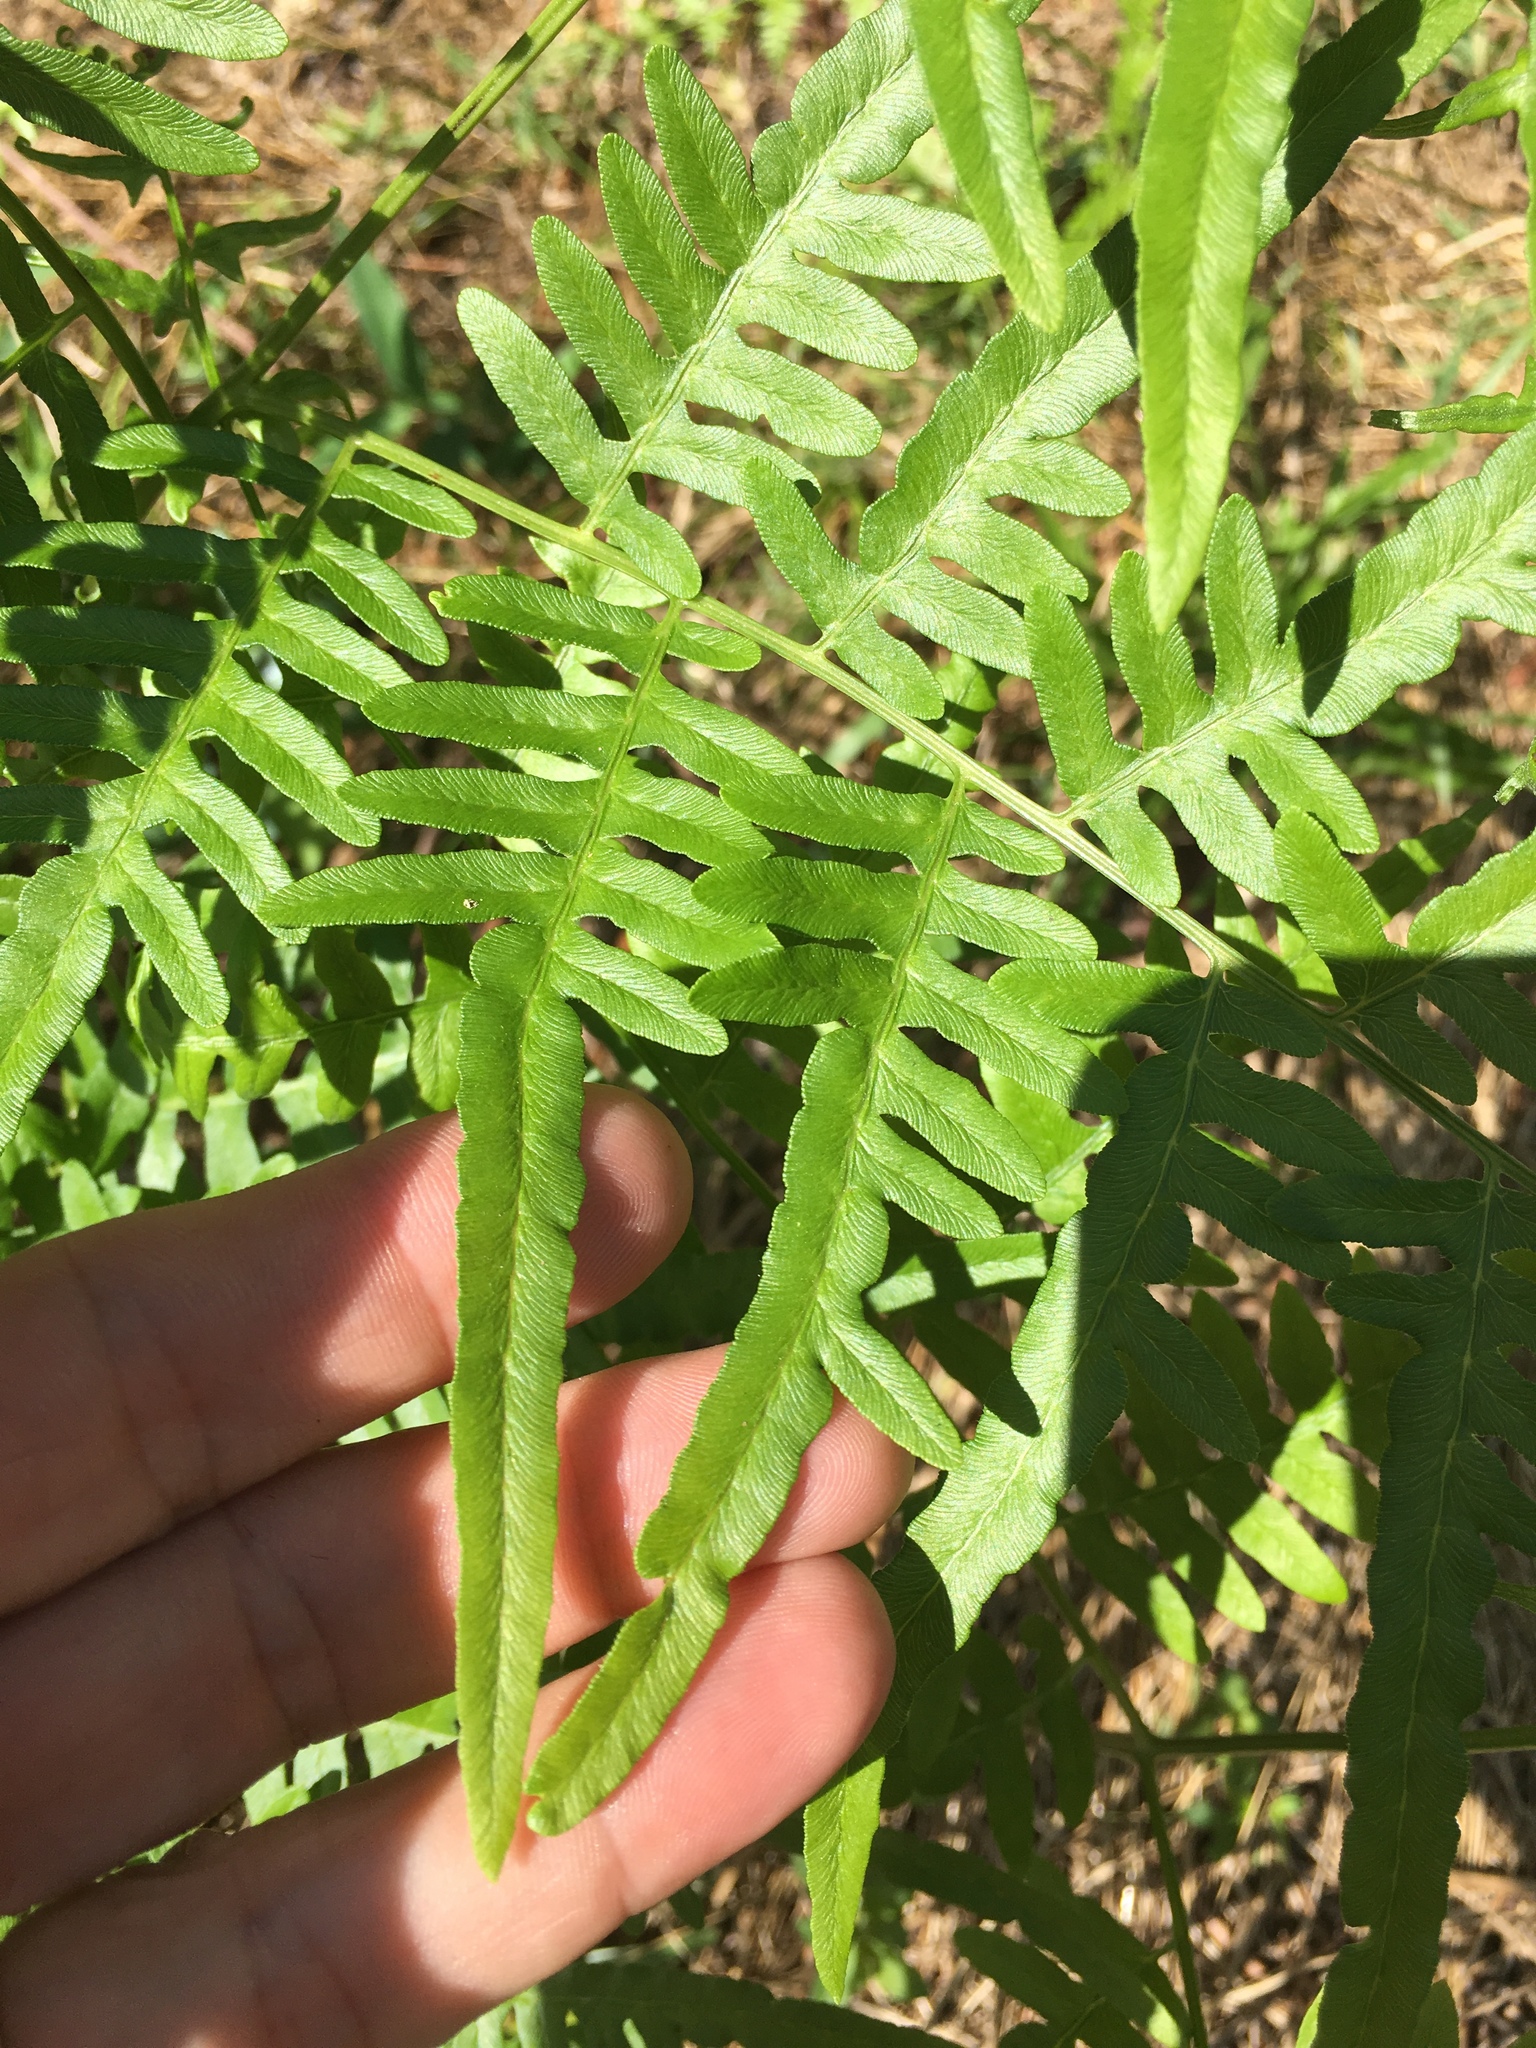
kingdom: Plantae
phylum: Tracheophyta
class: Polypodiopsida
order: Polypodiales
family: Dennstaedtiaceae
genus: Pteridium
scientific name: Pteridium
